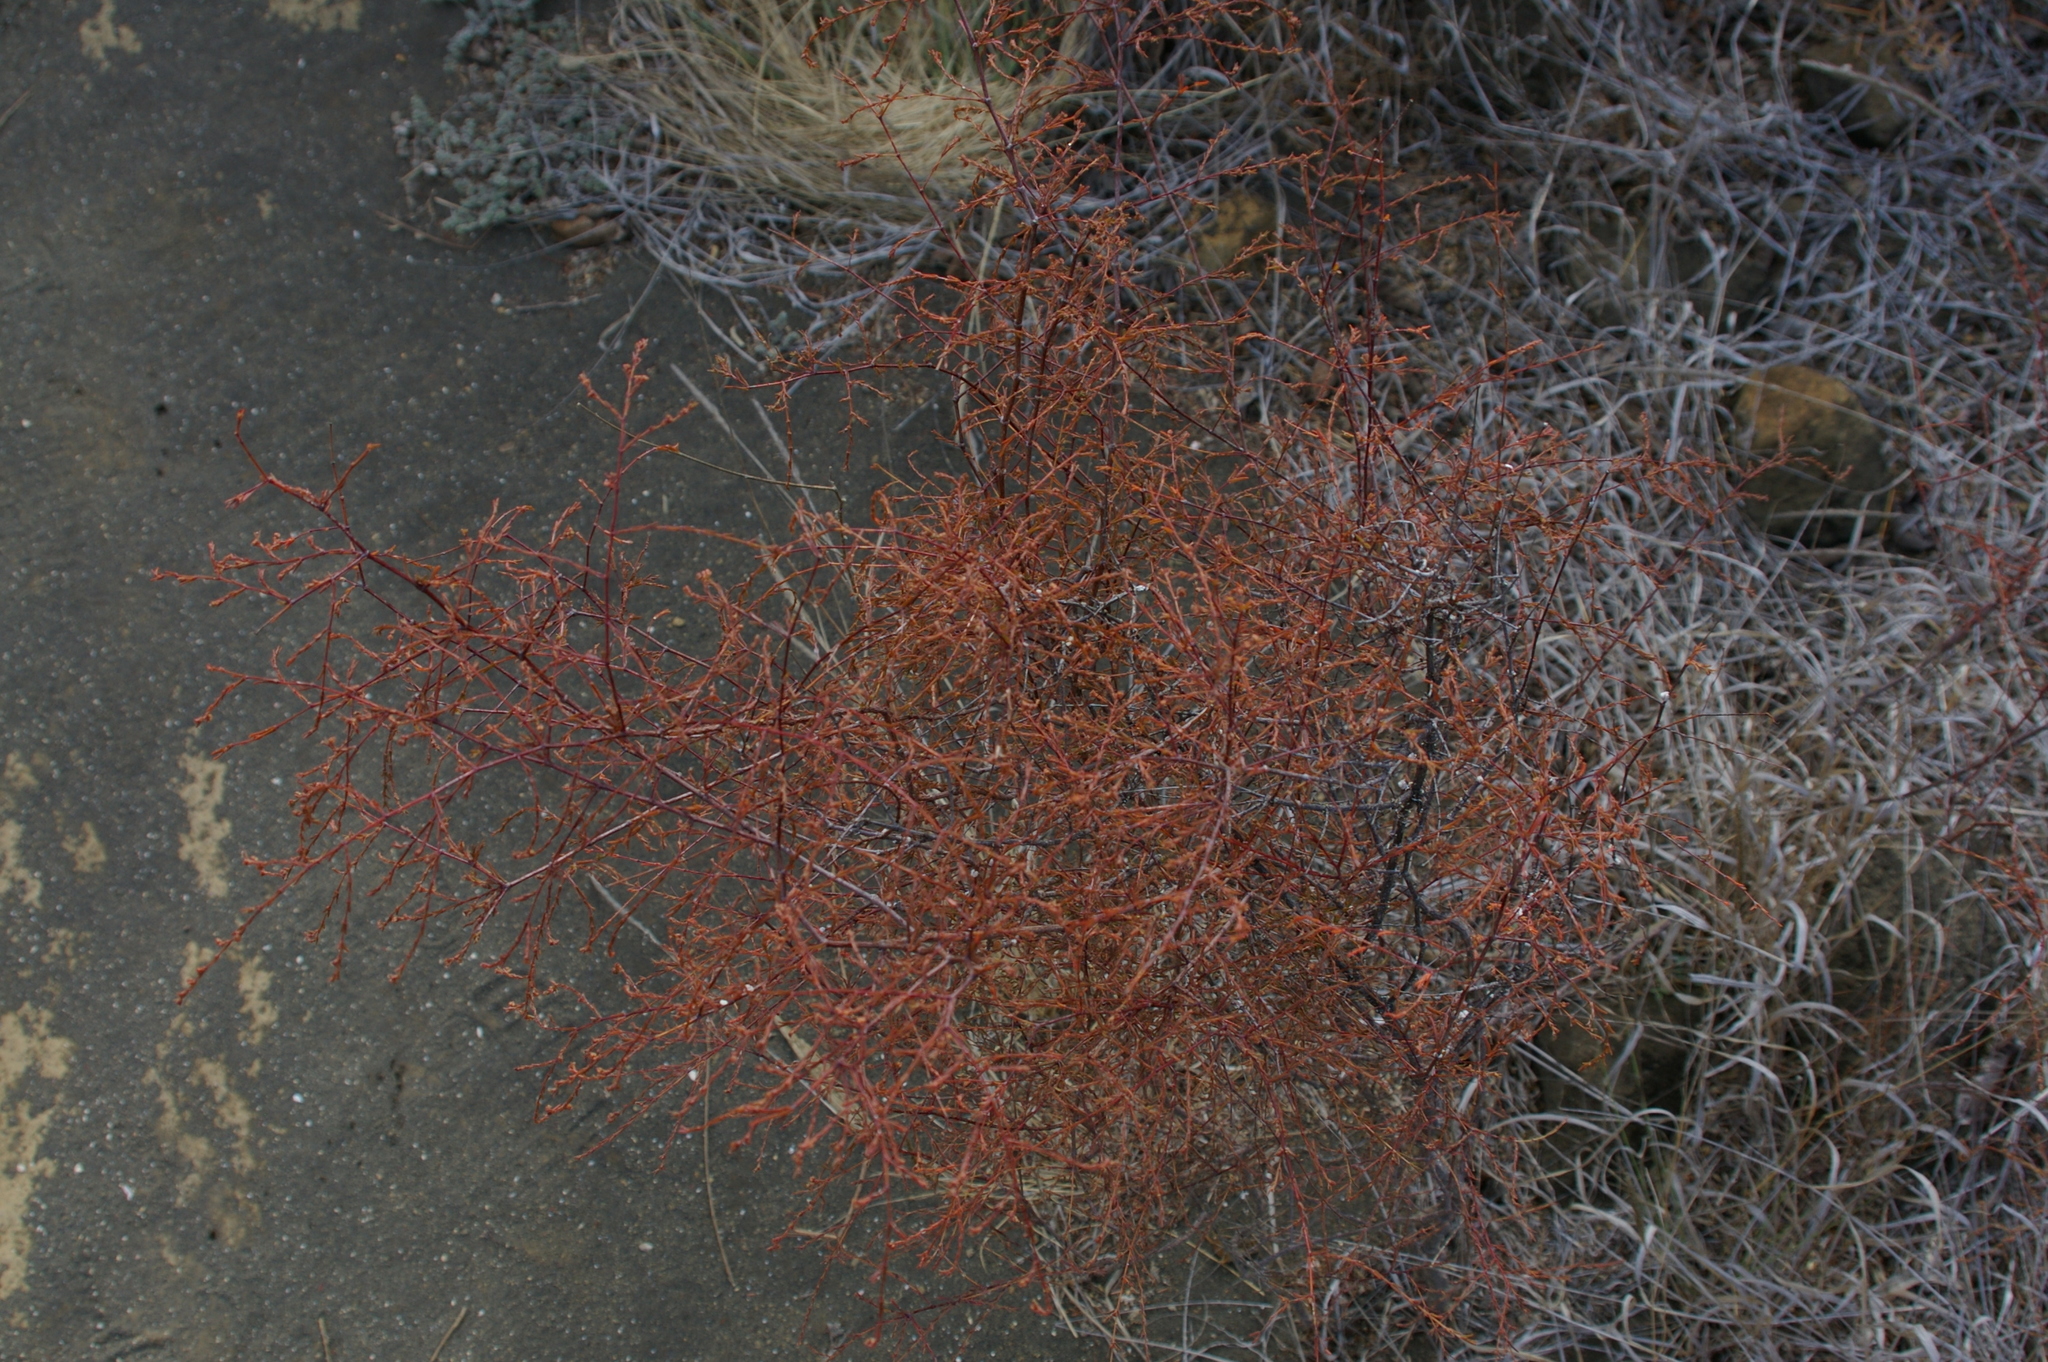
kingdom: Plantae
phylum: Tracheophyta
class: Magnoliopsida
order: Malpighiales
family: Euphorbiaceae
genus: Euphorbia
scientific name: Euphorbia punctulata
